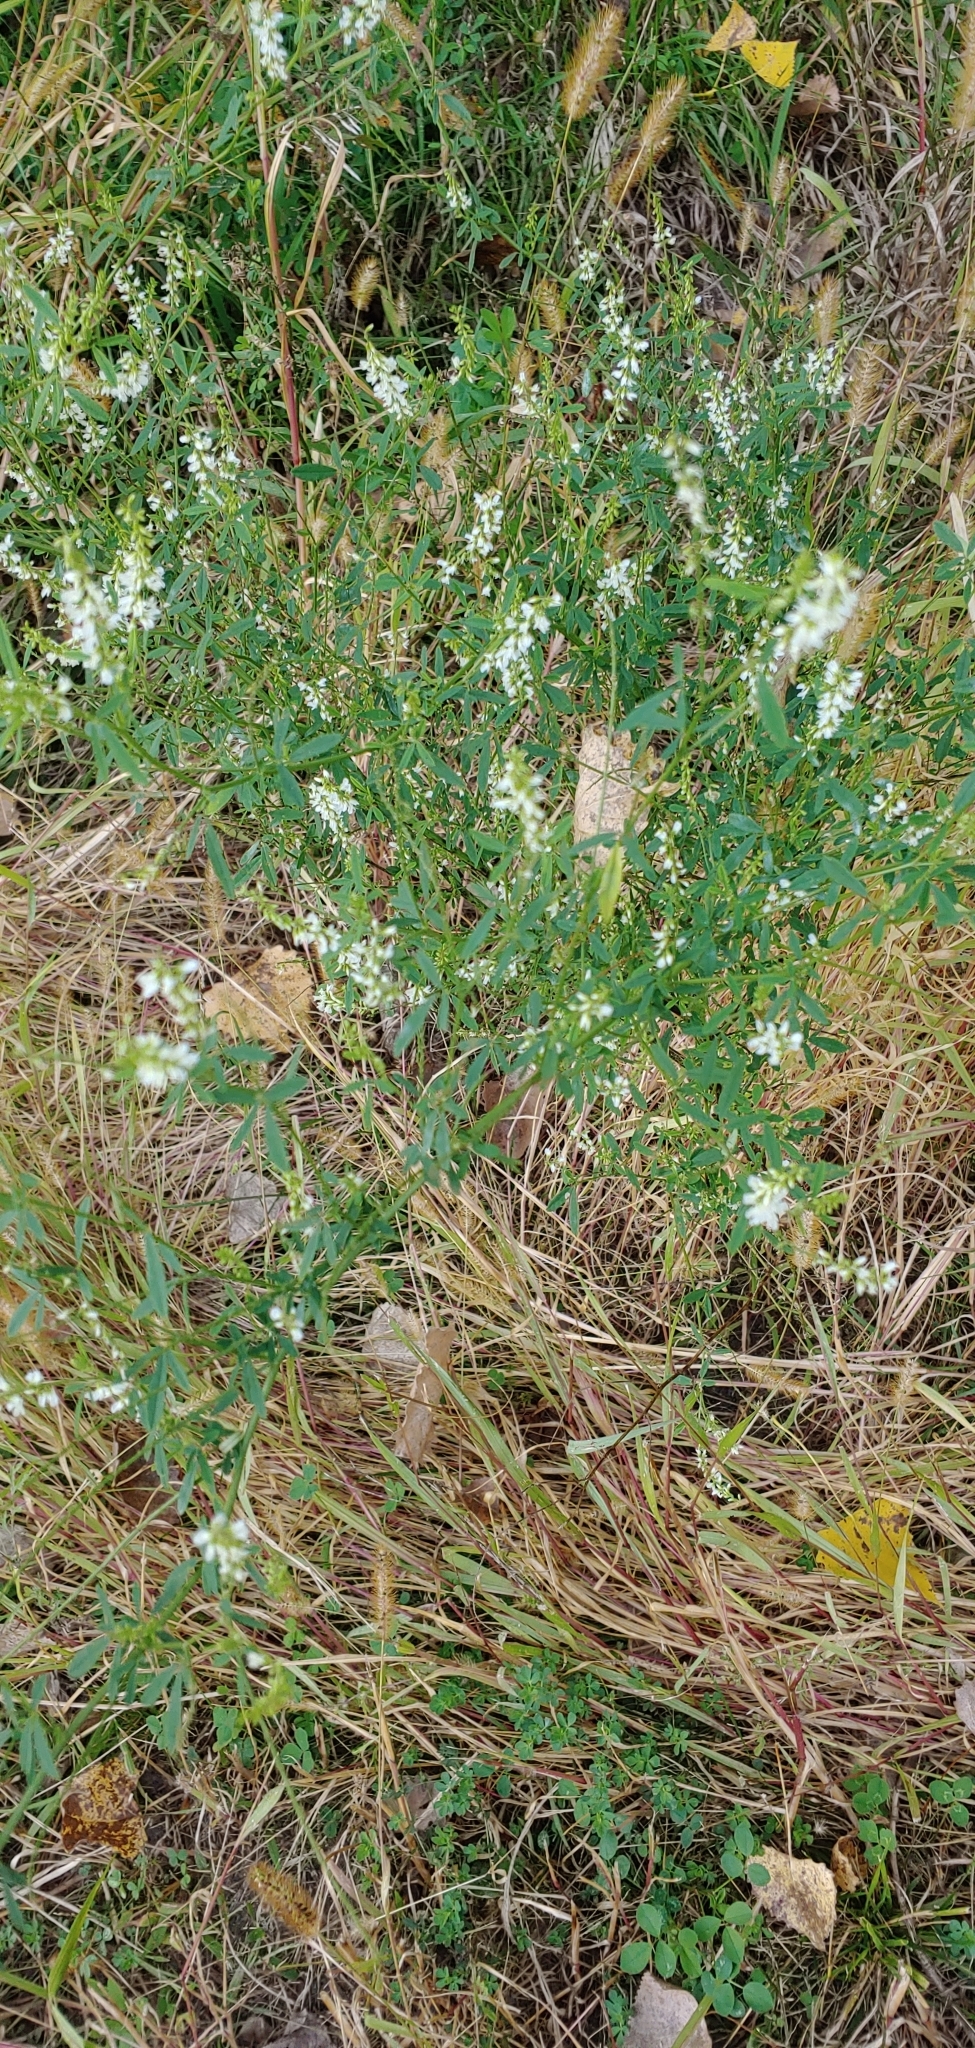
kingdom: Plantae
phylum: Tracheophyta
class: Magnoliopsida
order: Fabales
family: Fabaceae
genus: Melilotus
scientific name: Melilotus albus
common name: White melilot
